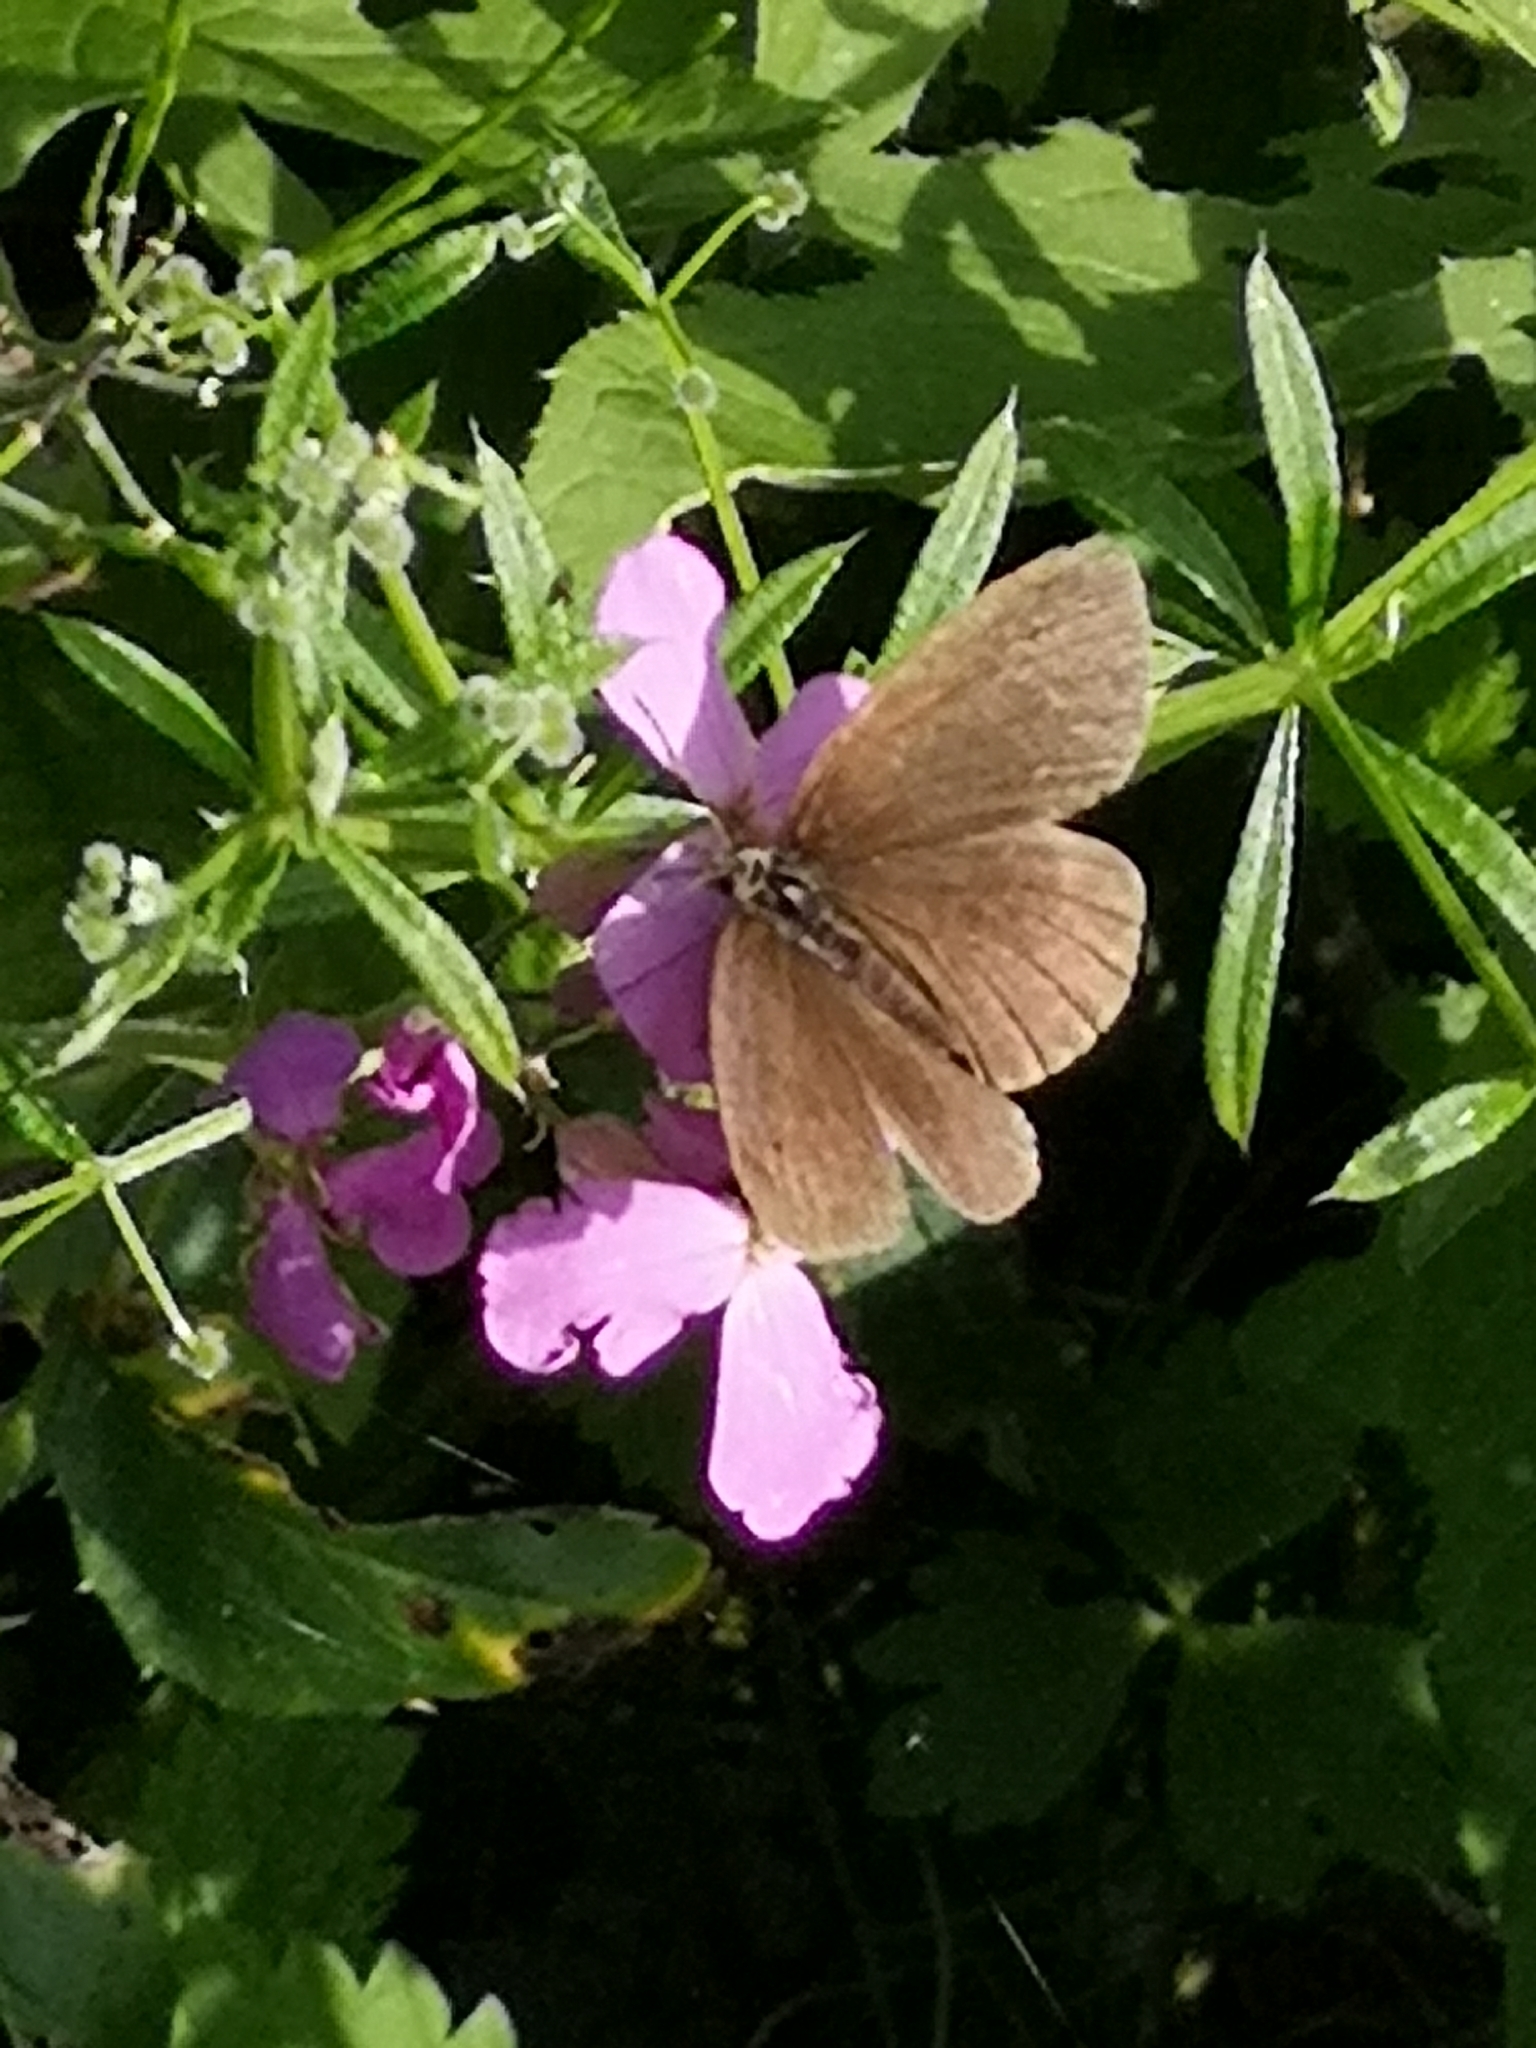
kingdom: Animalia
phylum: Arthropoda
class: Insecta
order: Lepidoptera
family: Nymphalidae
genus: Aphantopus
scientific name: Aphantopus hyperantus
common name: Ringlet
